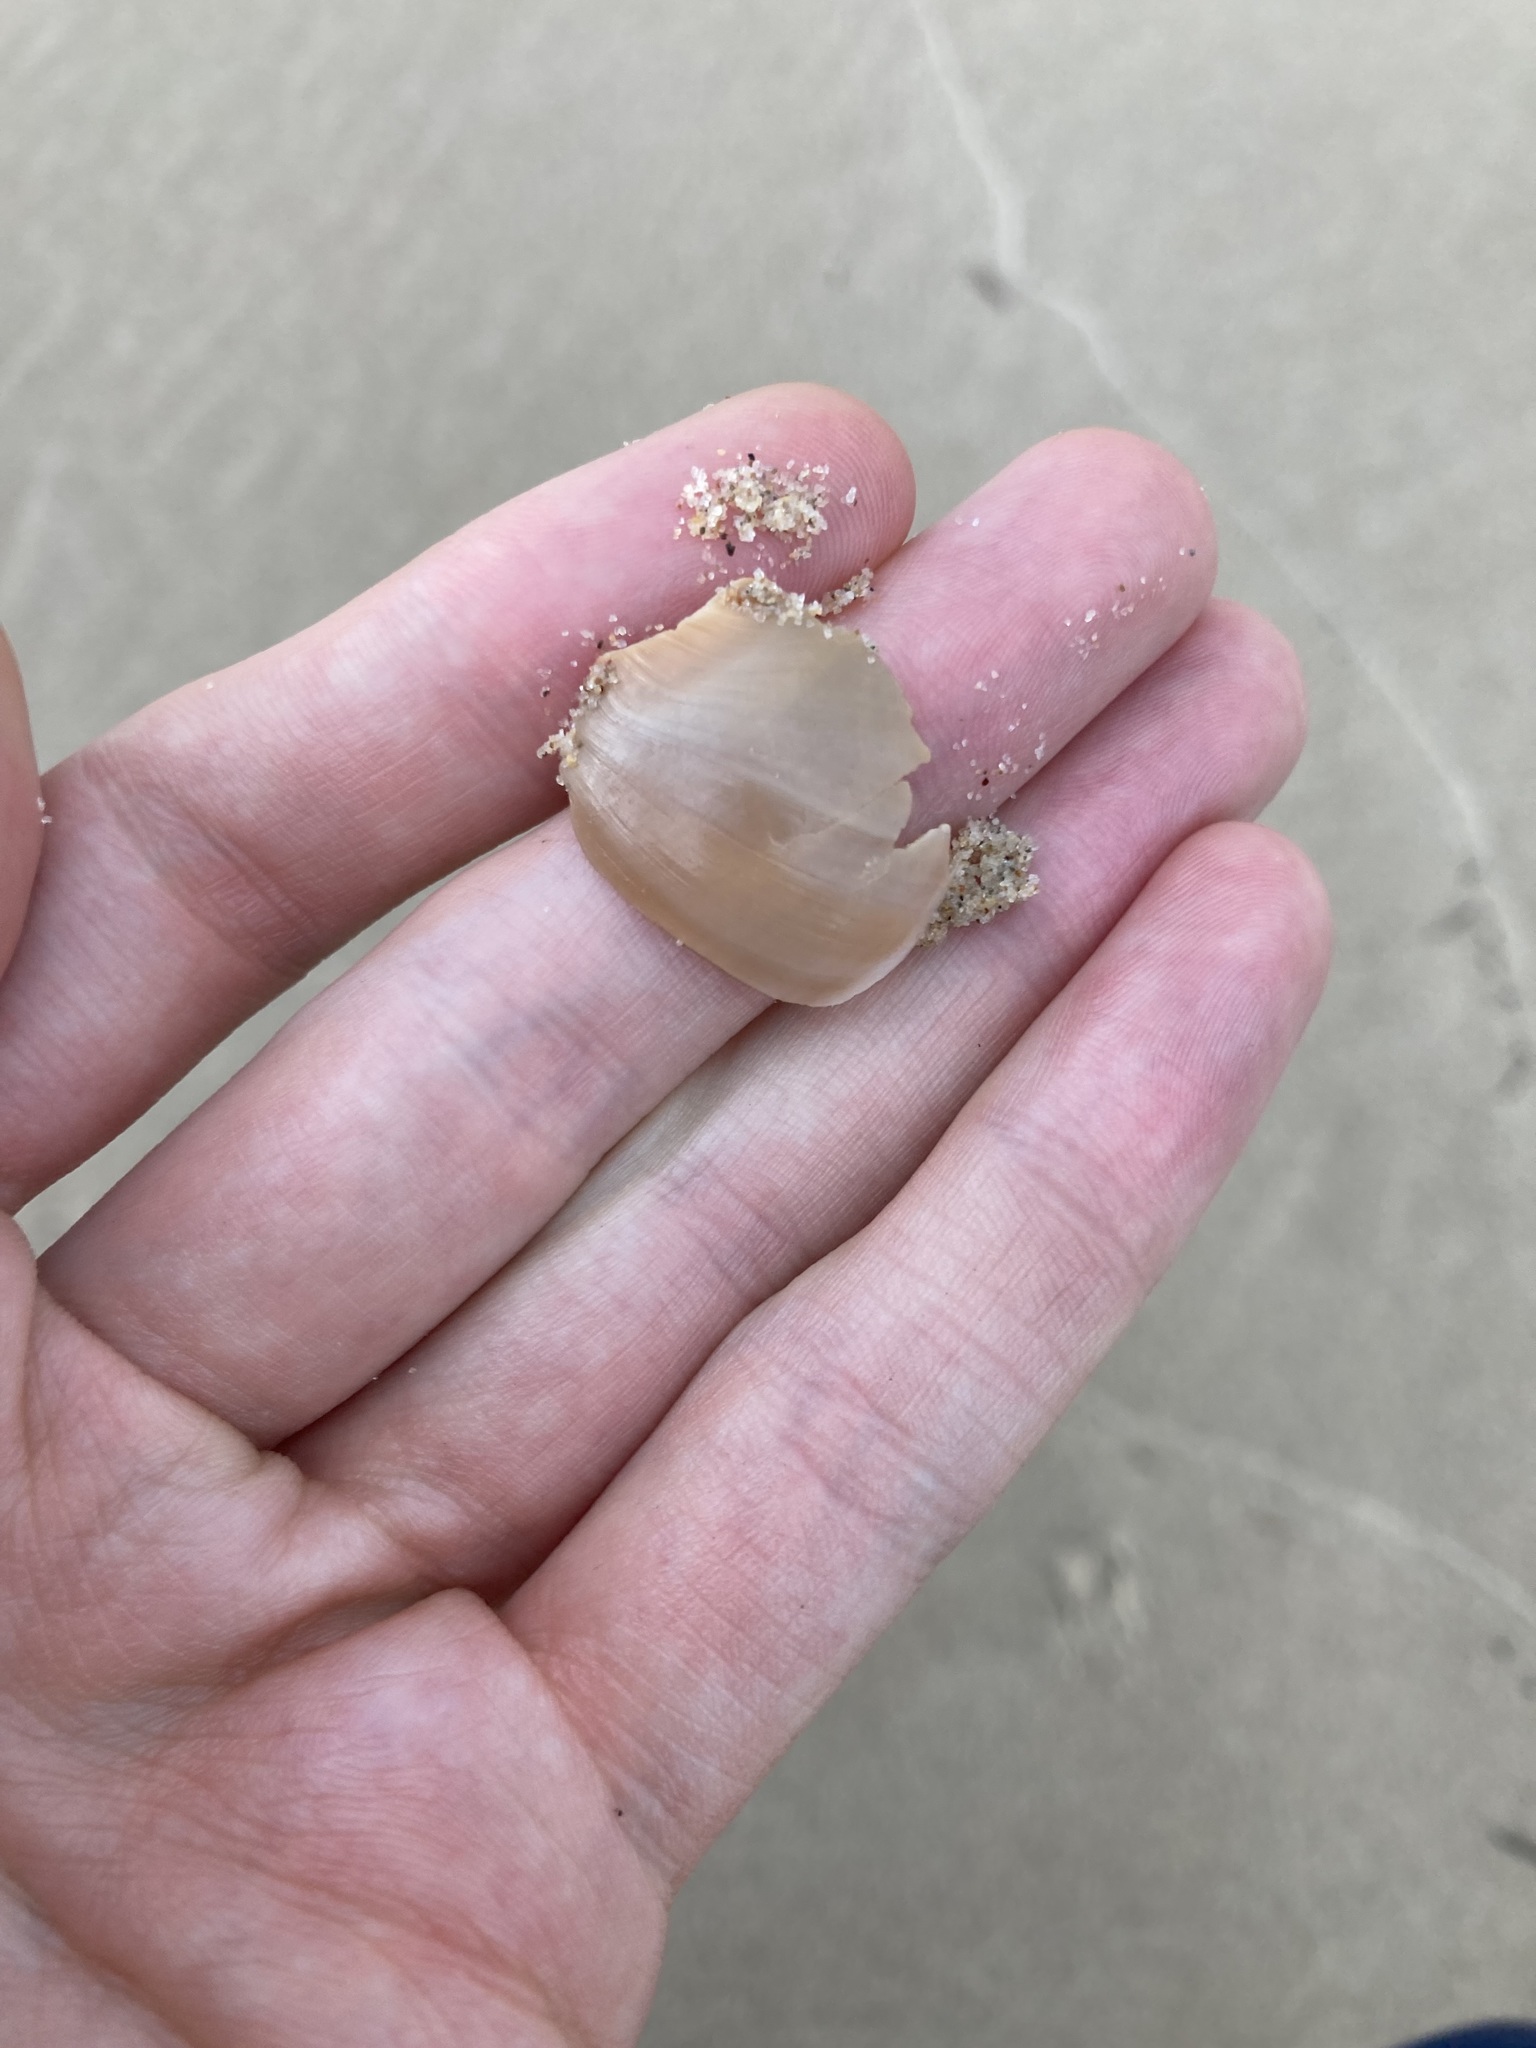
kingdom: Animalia
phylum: Mollusca
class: Gastropoda
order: Littorinimorpha
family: Naticidae
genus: Neverita
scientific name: Neverita didyma
